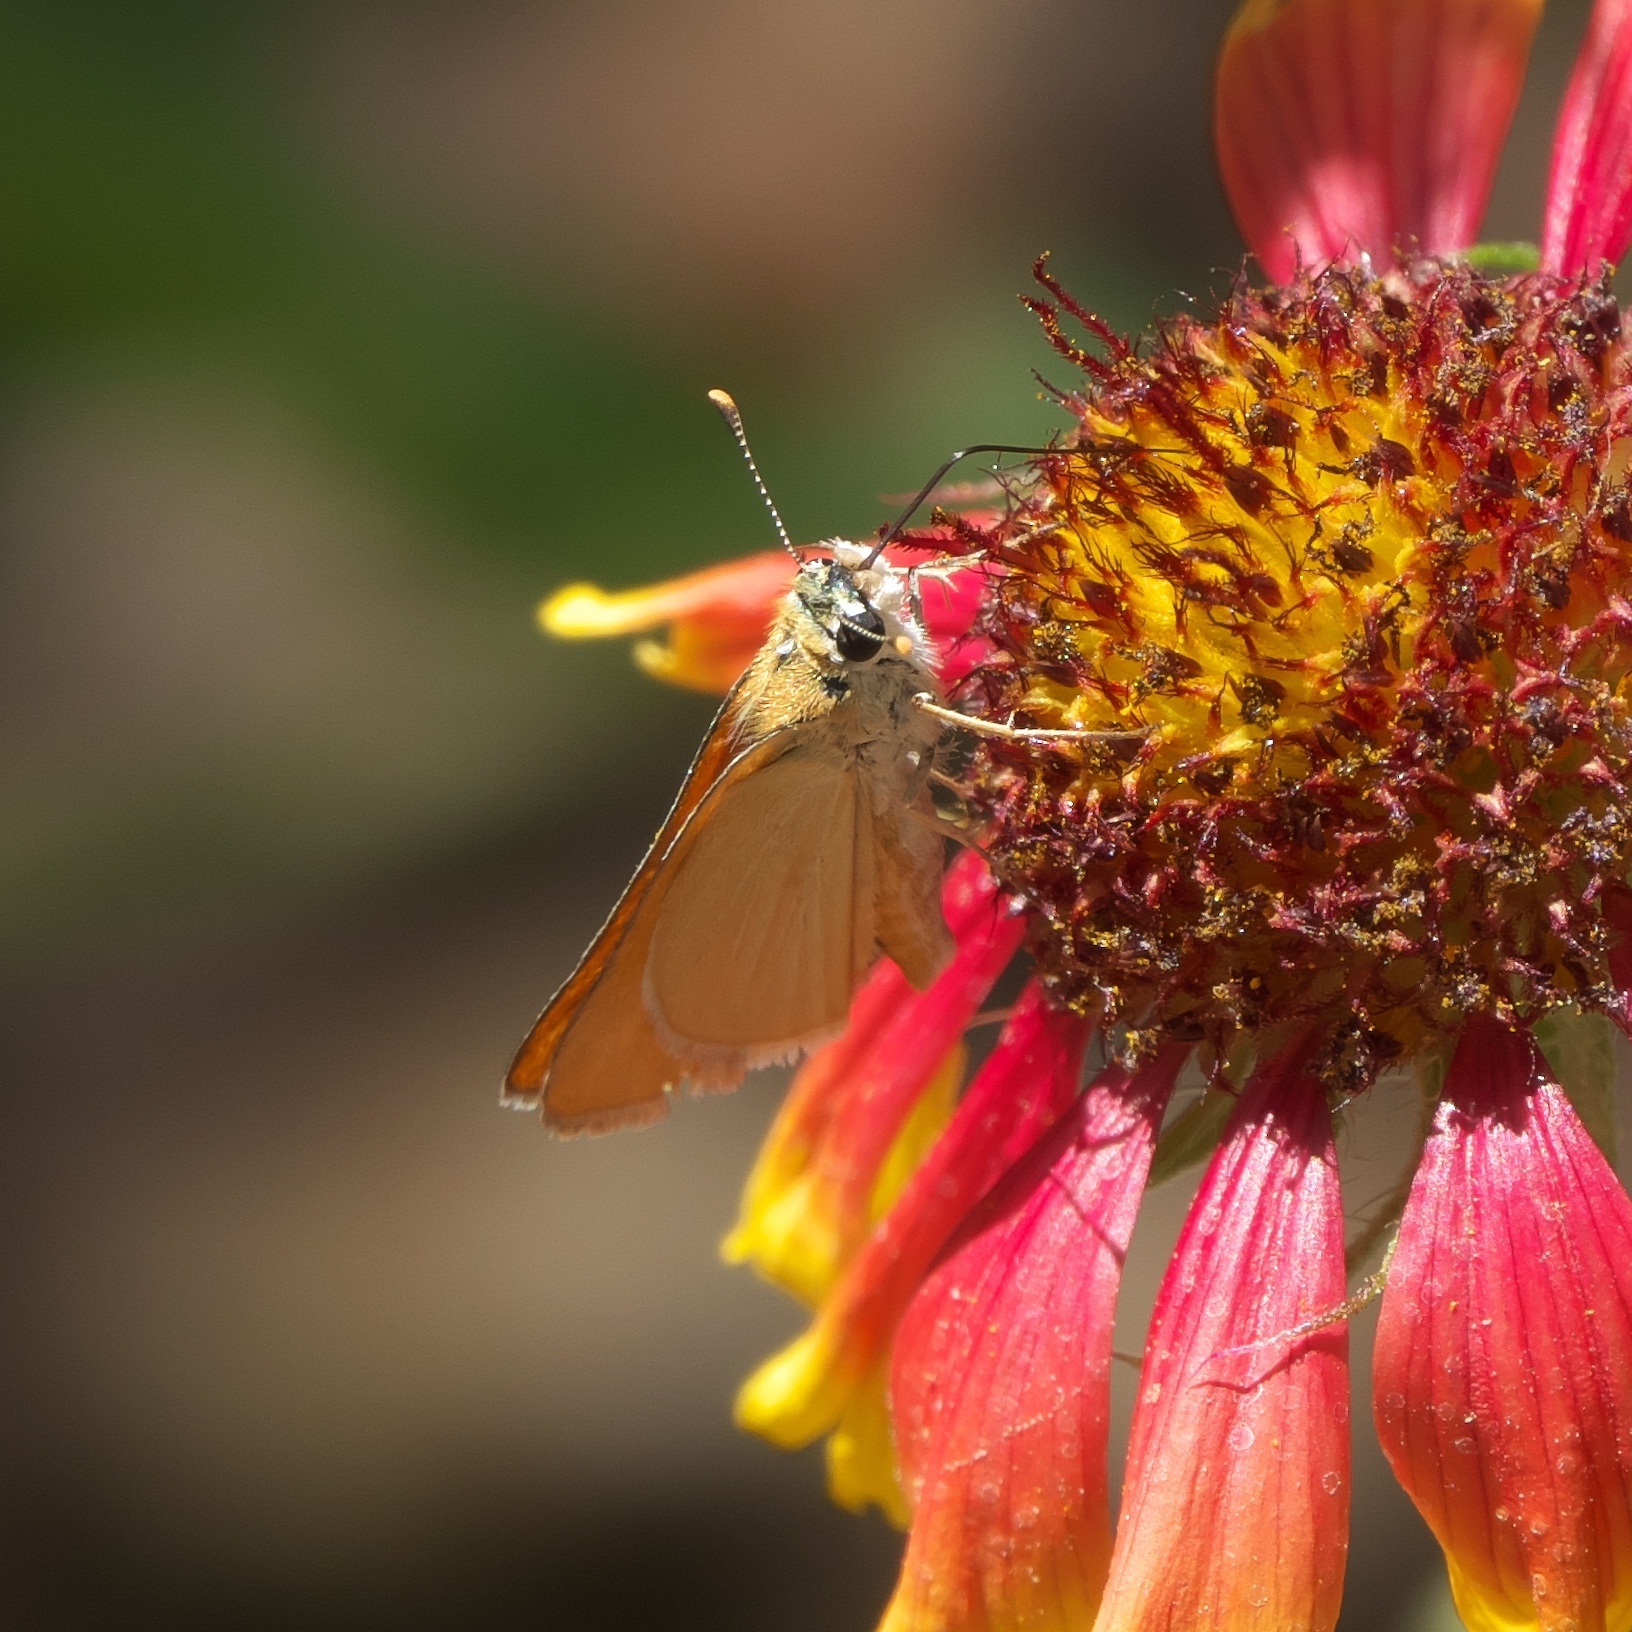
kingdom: Animalia
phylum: Arthropoda
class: Insecta
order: Lepidoptera
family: Hesperiidae
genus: Copaeodes
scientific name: Copaeodes aurantiaca
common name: Orange skipperling
